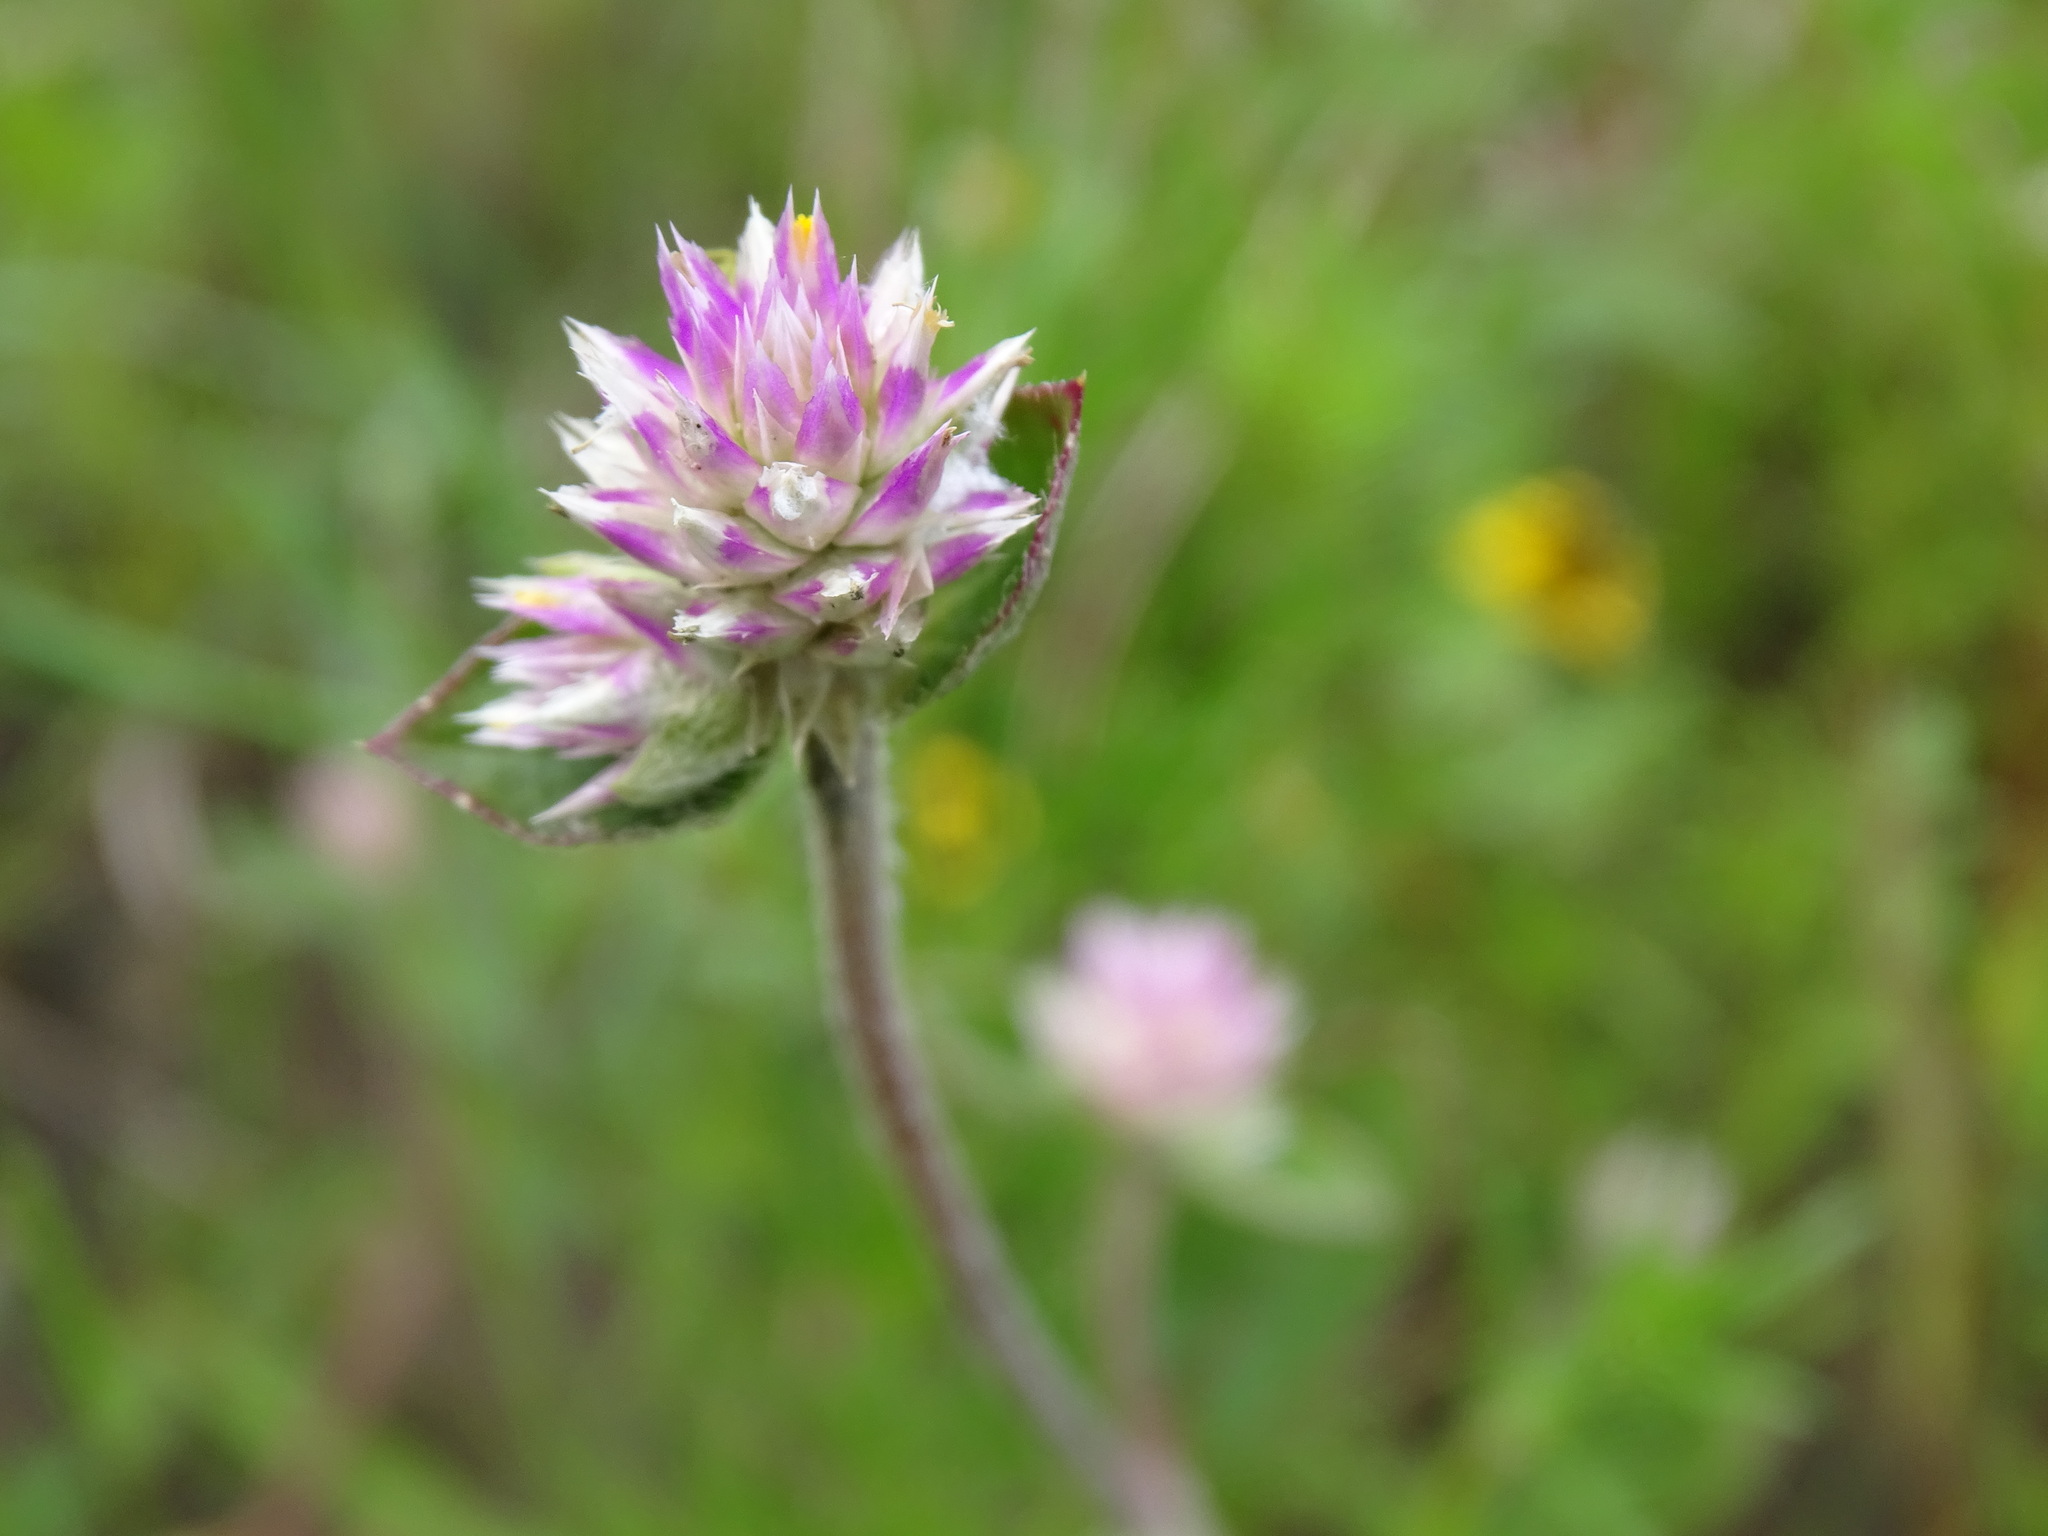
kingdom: Plantae
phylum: Tracheophyta
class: Magnoliopsida
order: Caryophyllales
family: Amaranthaceae
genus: Gomphrena
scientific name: Gomphrena serrata
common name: Arrasa con todo
